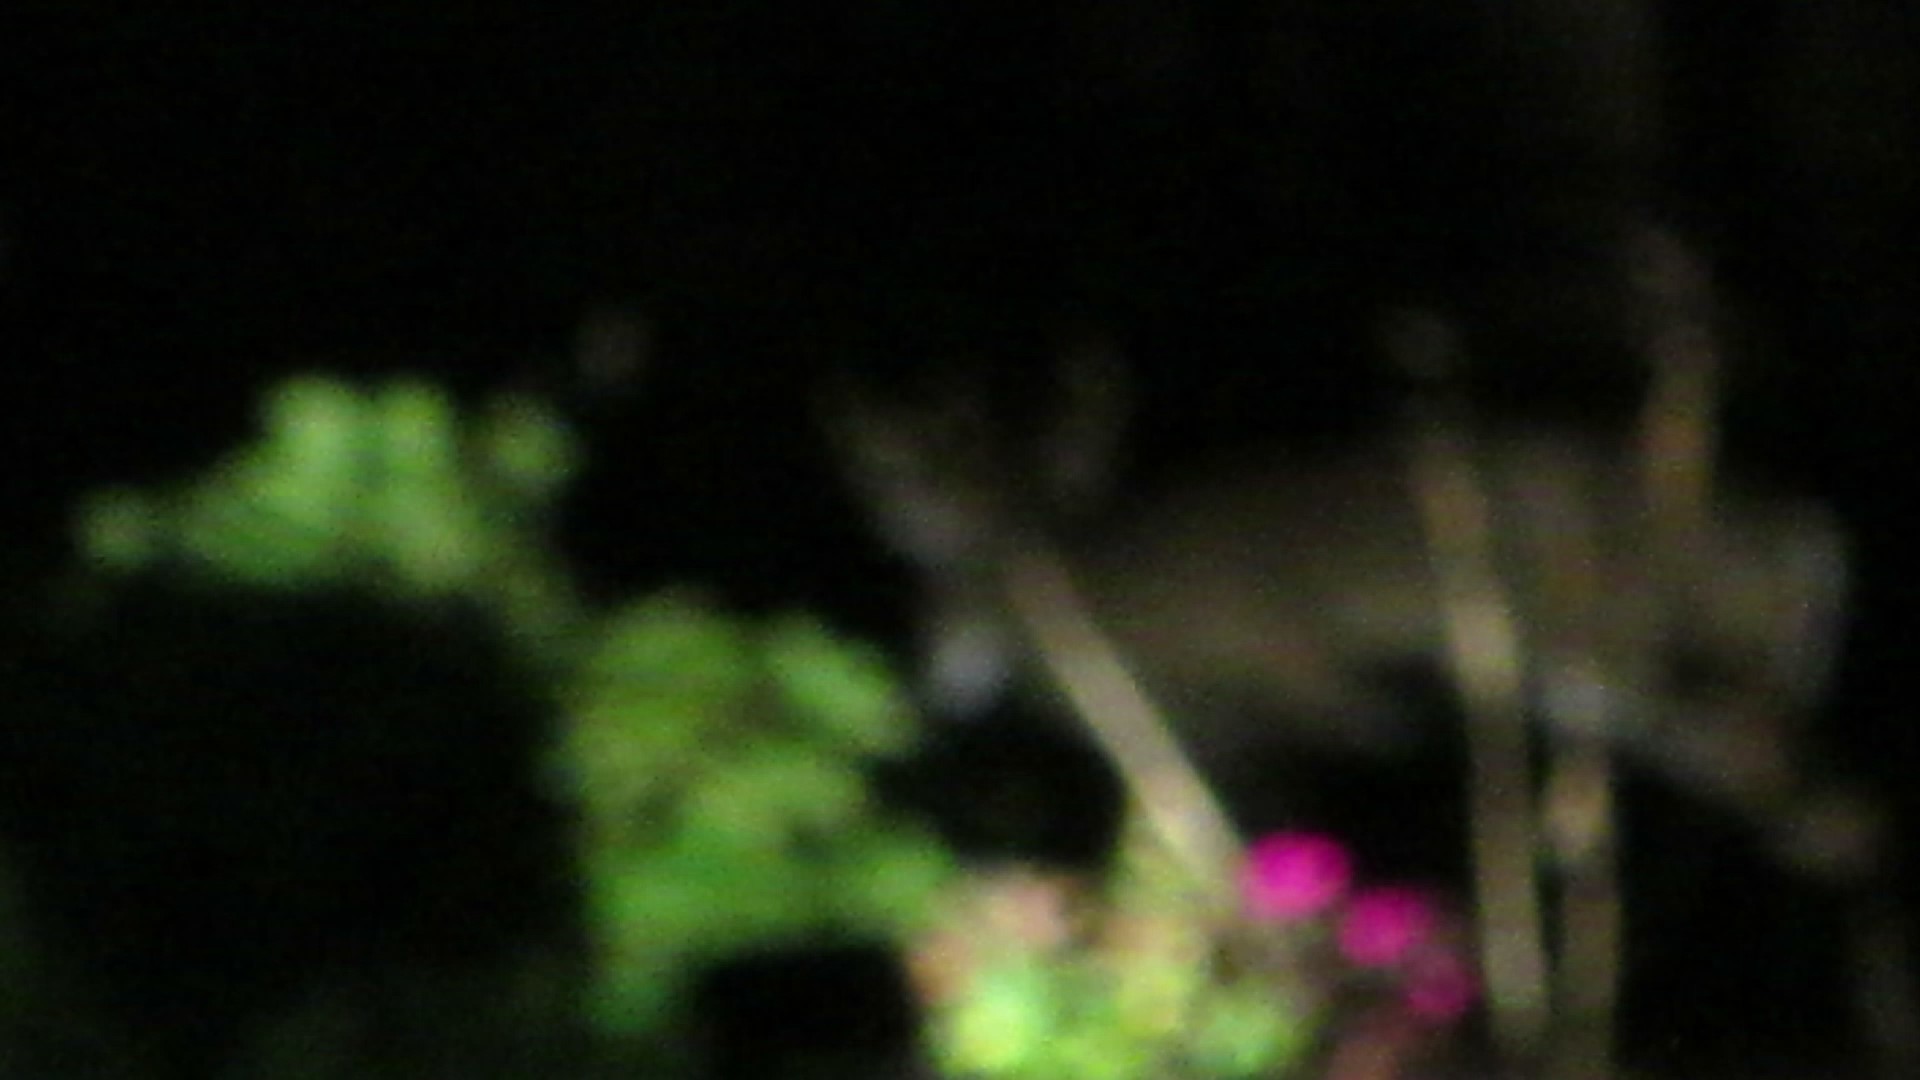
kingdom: Animalia
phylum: Chordata
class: Mammalia
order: Artiodactyla
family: Cervidae
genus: Odocoileus
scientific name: Odocoileus virginianus
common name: White-tailed deer
